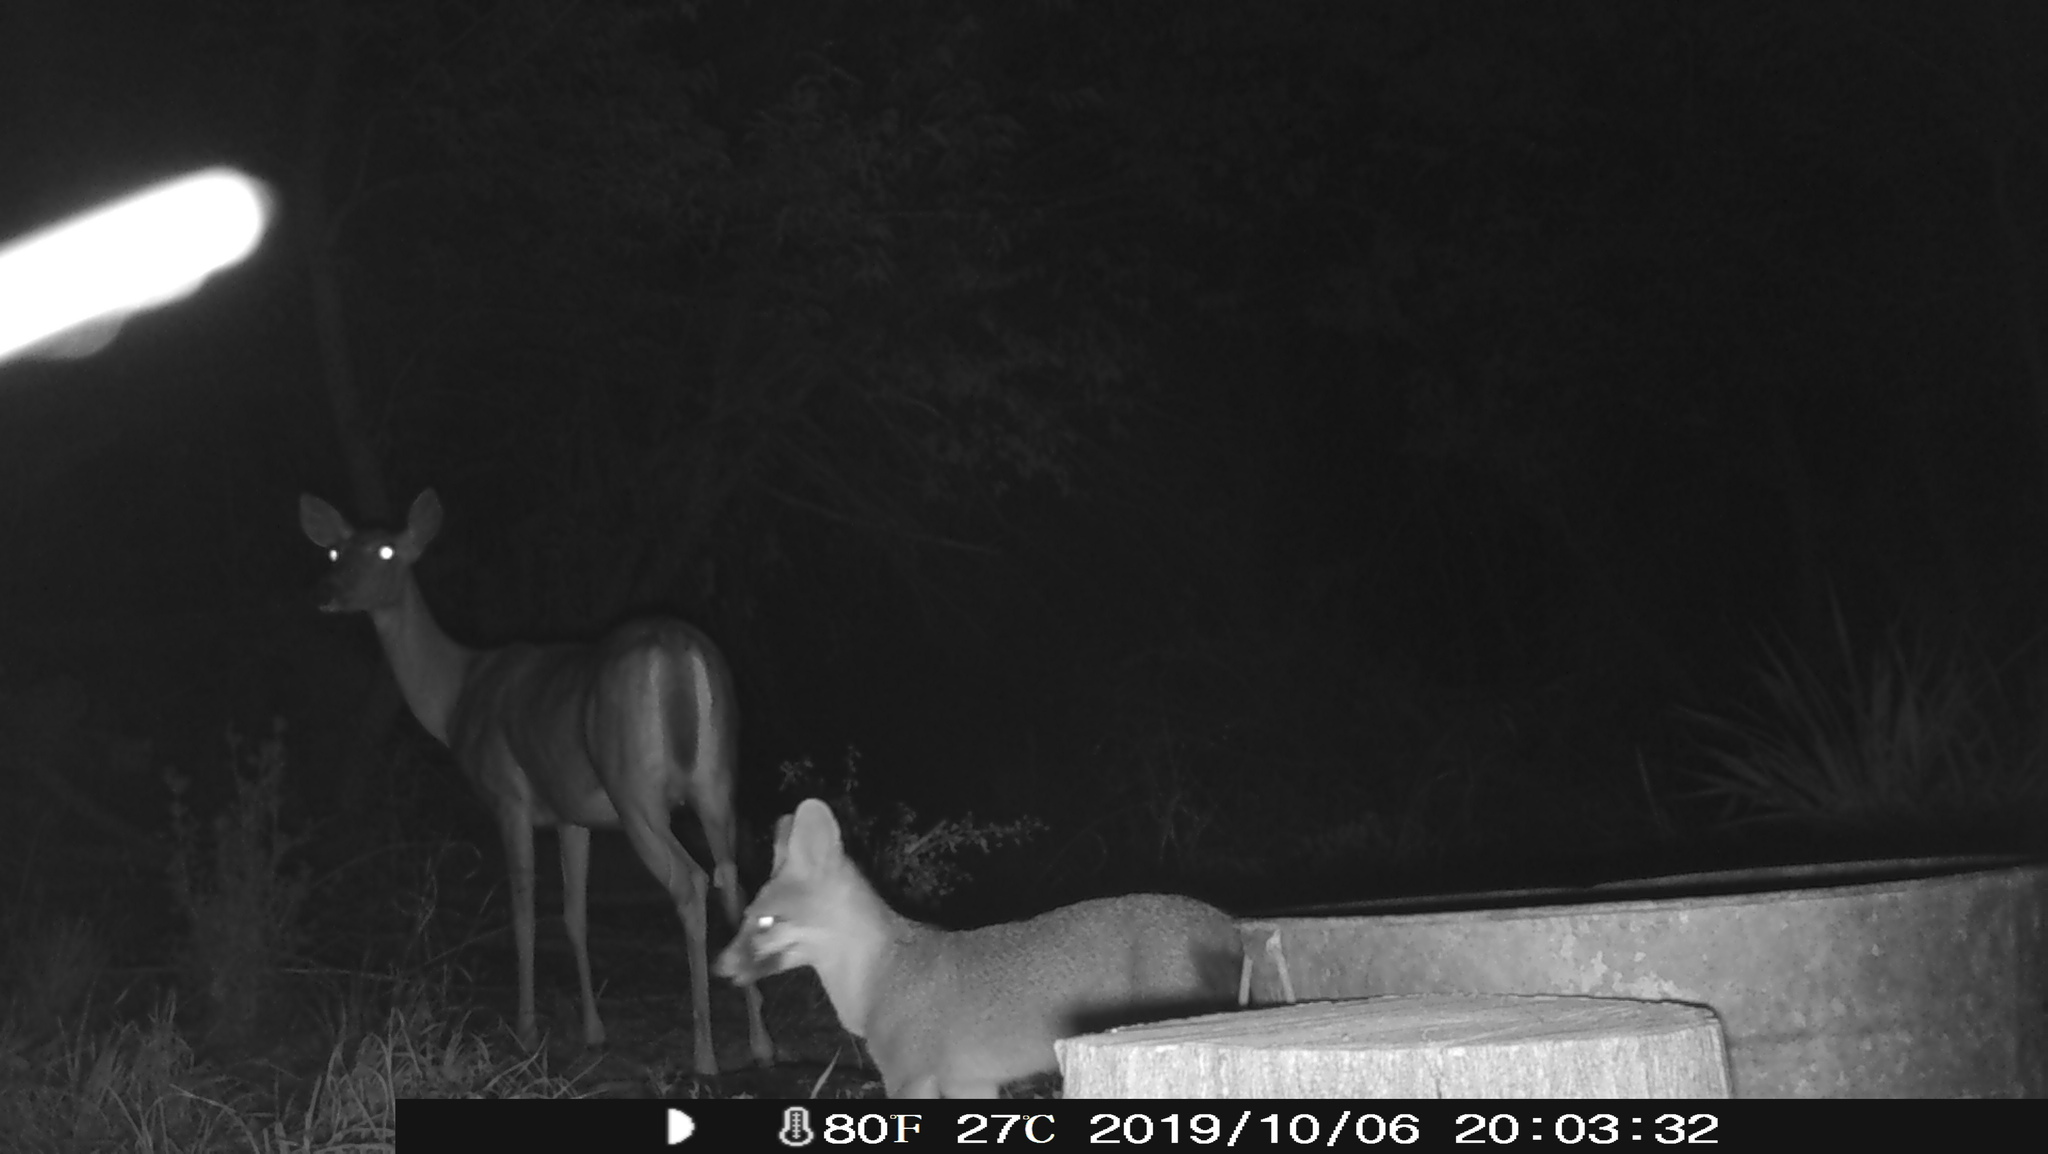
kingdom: Animalia
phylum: Chordata
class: Mammalia
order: Artiodactyla
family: Cervidae
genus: Odocoileus
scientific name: Odocoileus virginianus
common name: White-tailed deer
